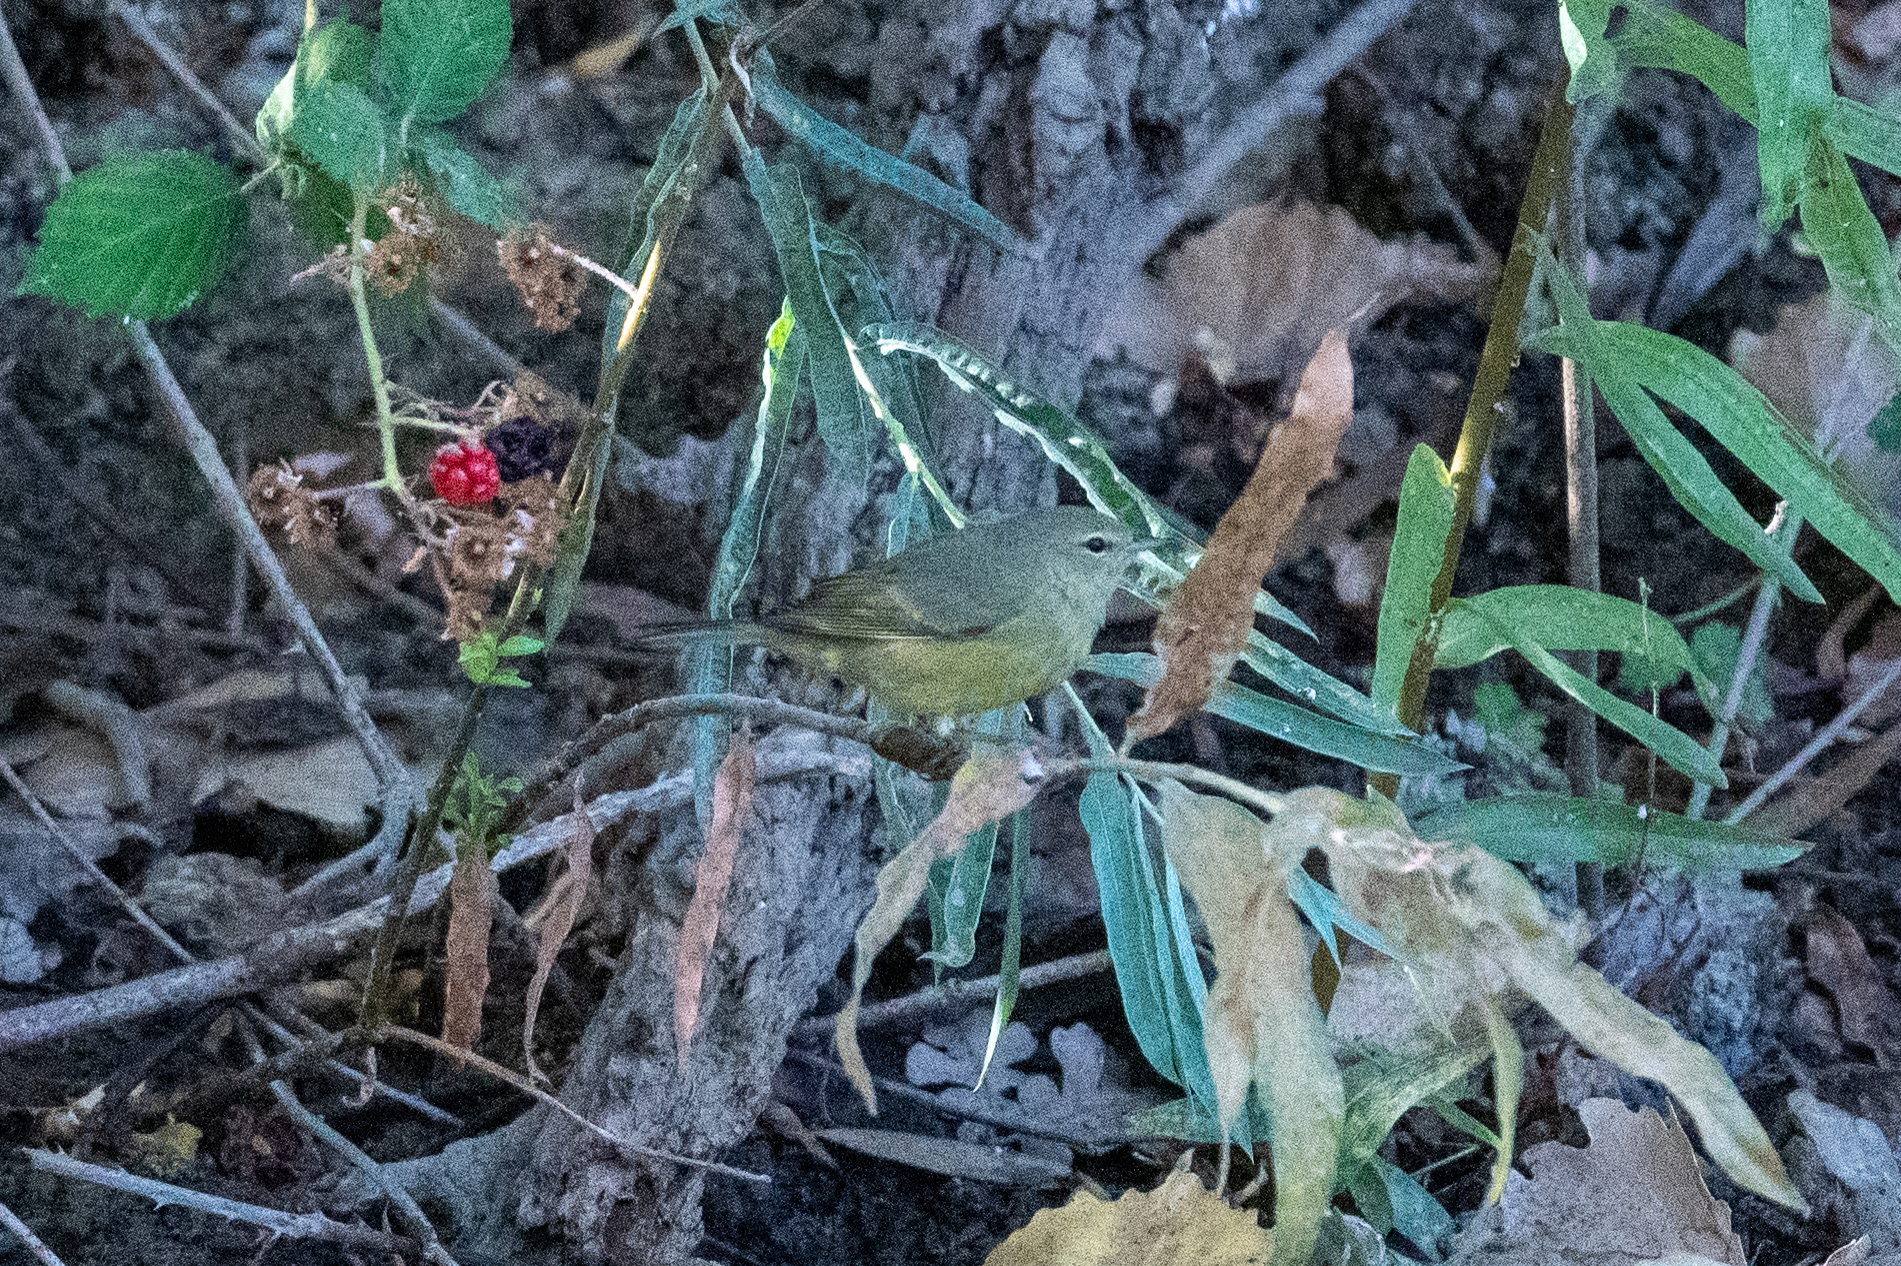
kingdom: Animalia
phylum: Chordata
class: Aves
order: Passeriformes
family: Parulidae
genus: Leiothlypis
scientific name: Leiothlypis celata
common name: Orange-crowned warbler
